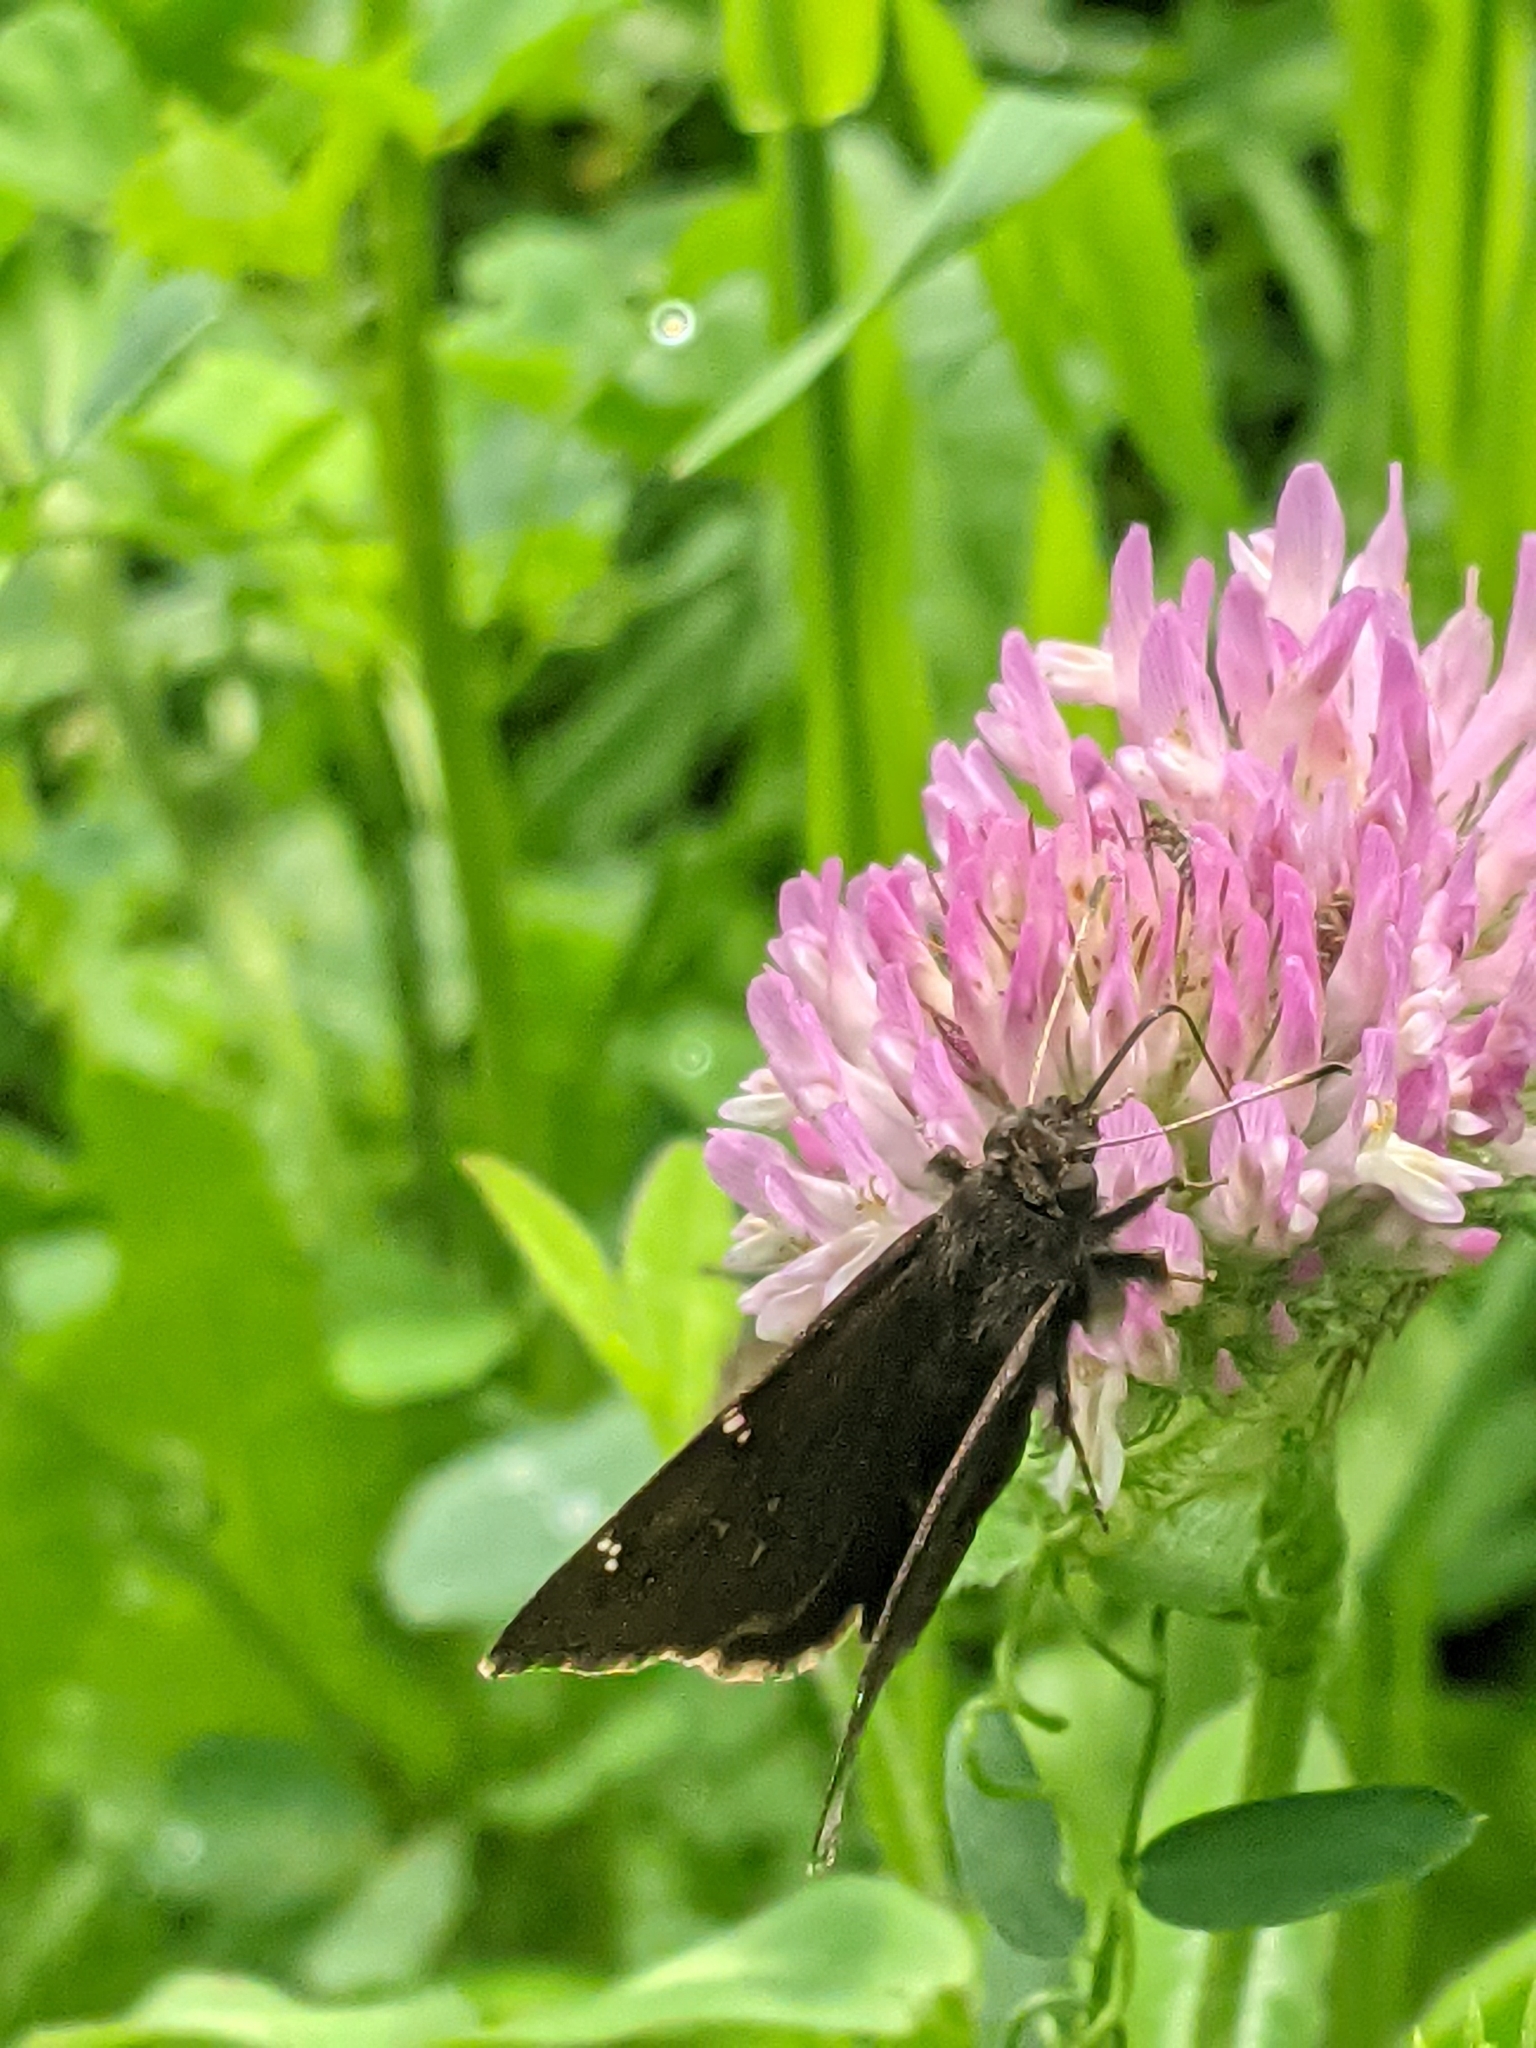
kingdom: Animalia
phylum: Arthropoda
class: Insecta
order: Lepidoptera
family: Hesperiidae
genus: Thorybes
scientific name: Thorybes pylades
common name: Northern cloudywing
